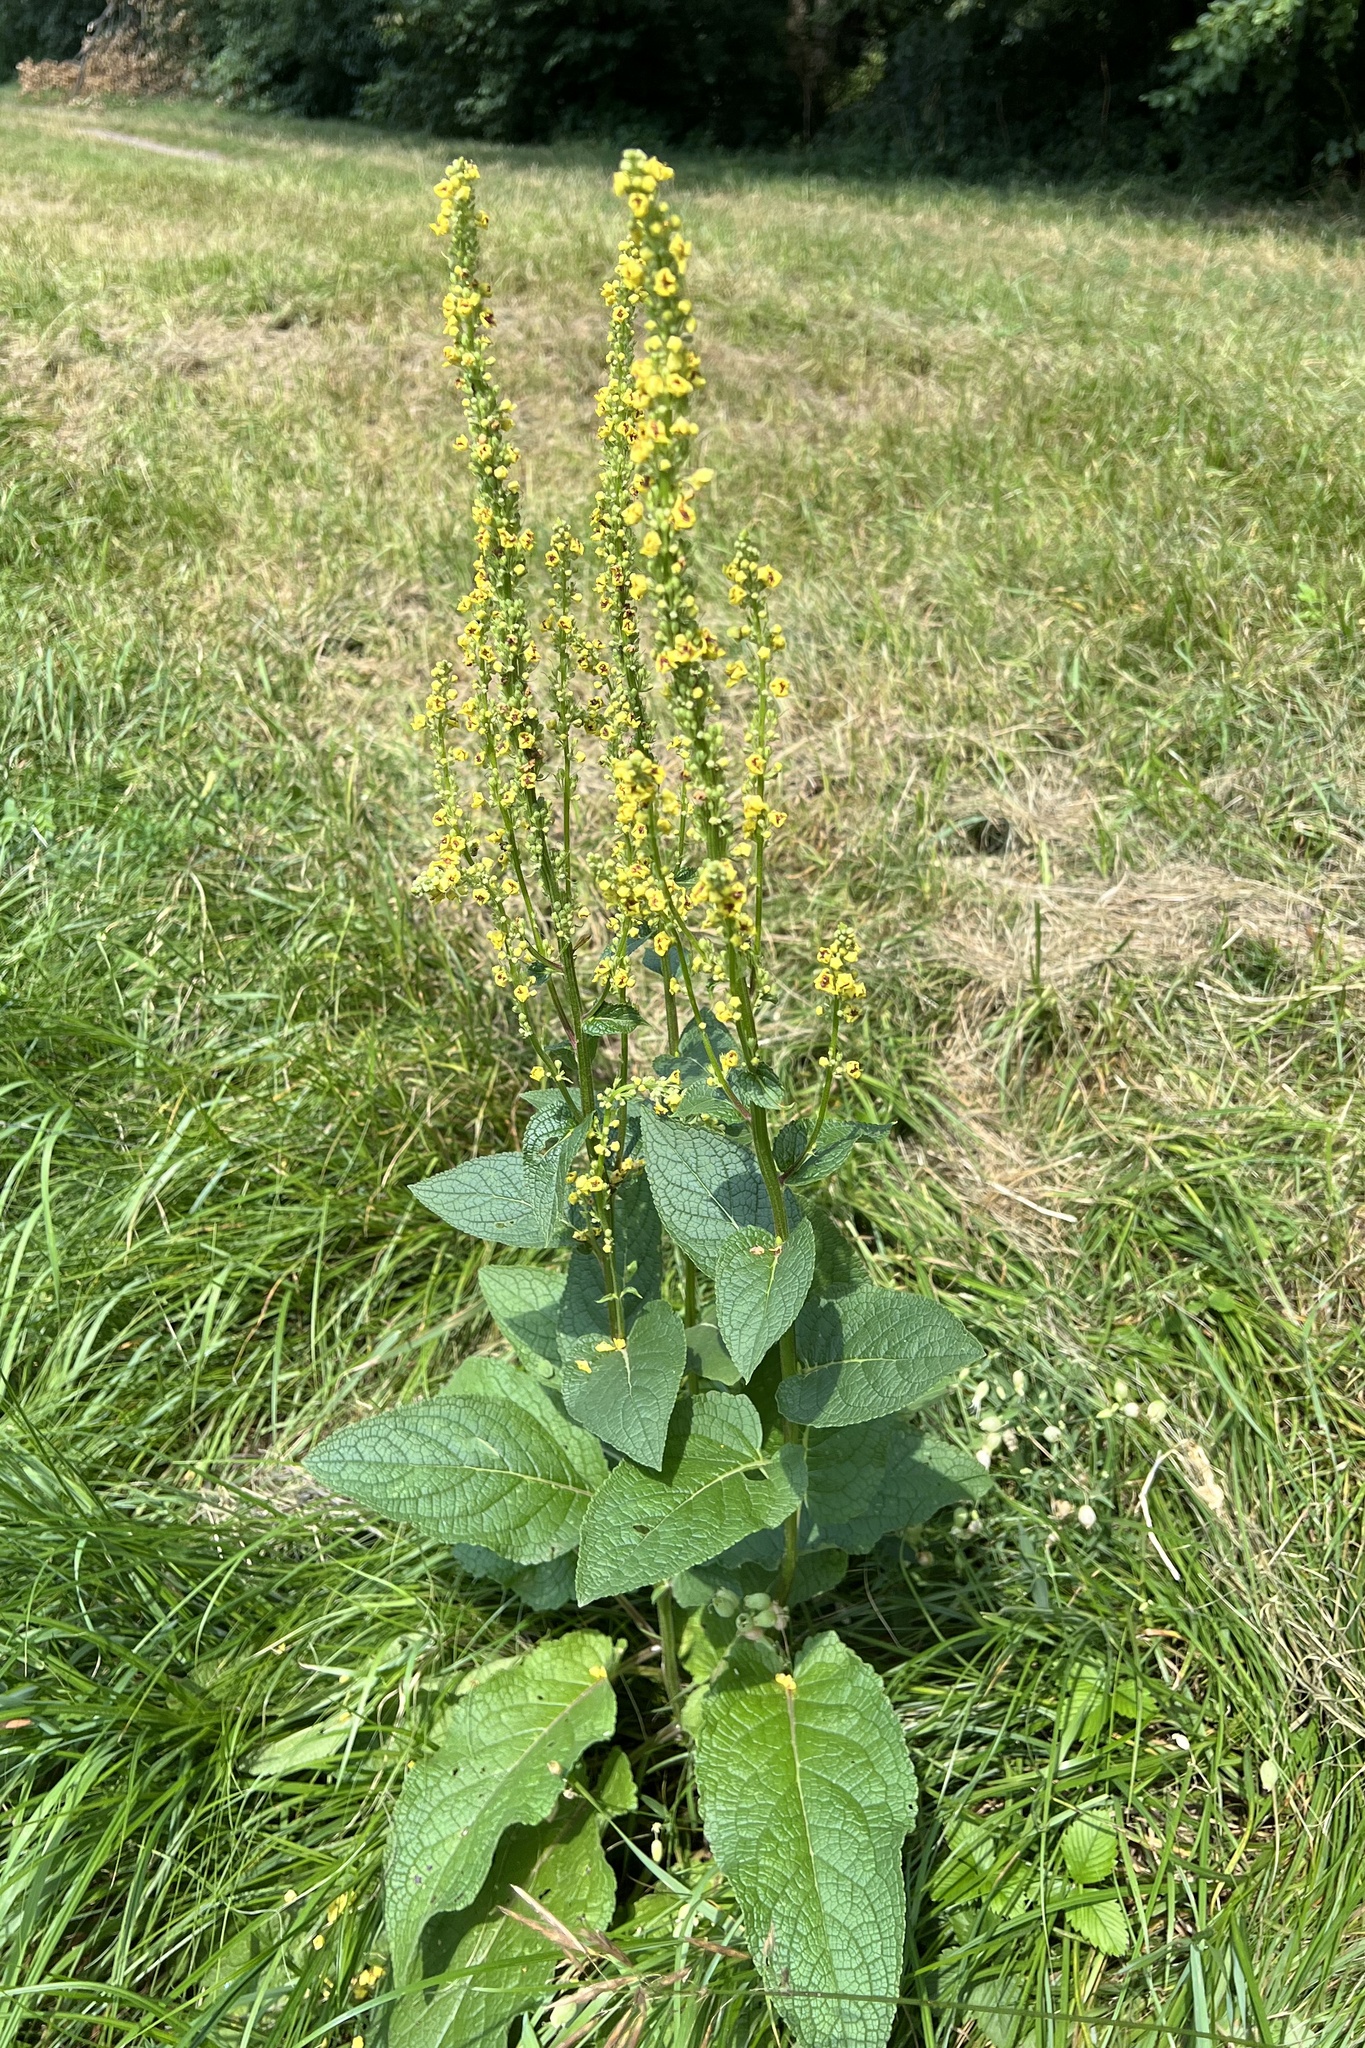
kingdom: Plantae
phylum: Tracheophyta
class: Magnoliopsida
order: Lamiales
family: Scrophulariaceae
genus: Verbascum
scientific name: Verbascum nigrum
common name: Dark mullein
